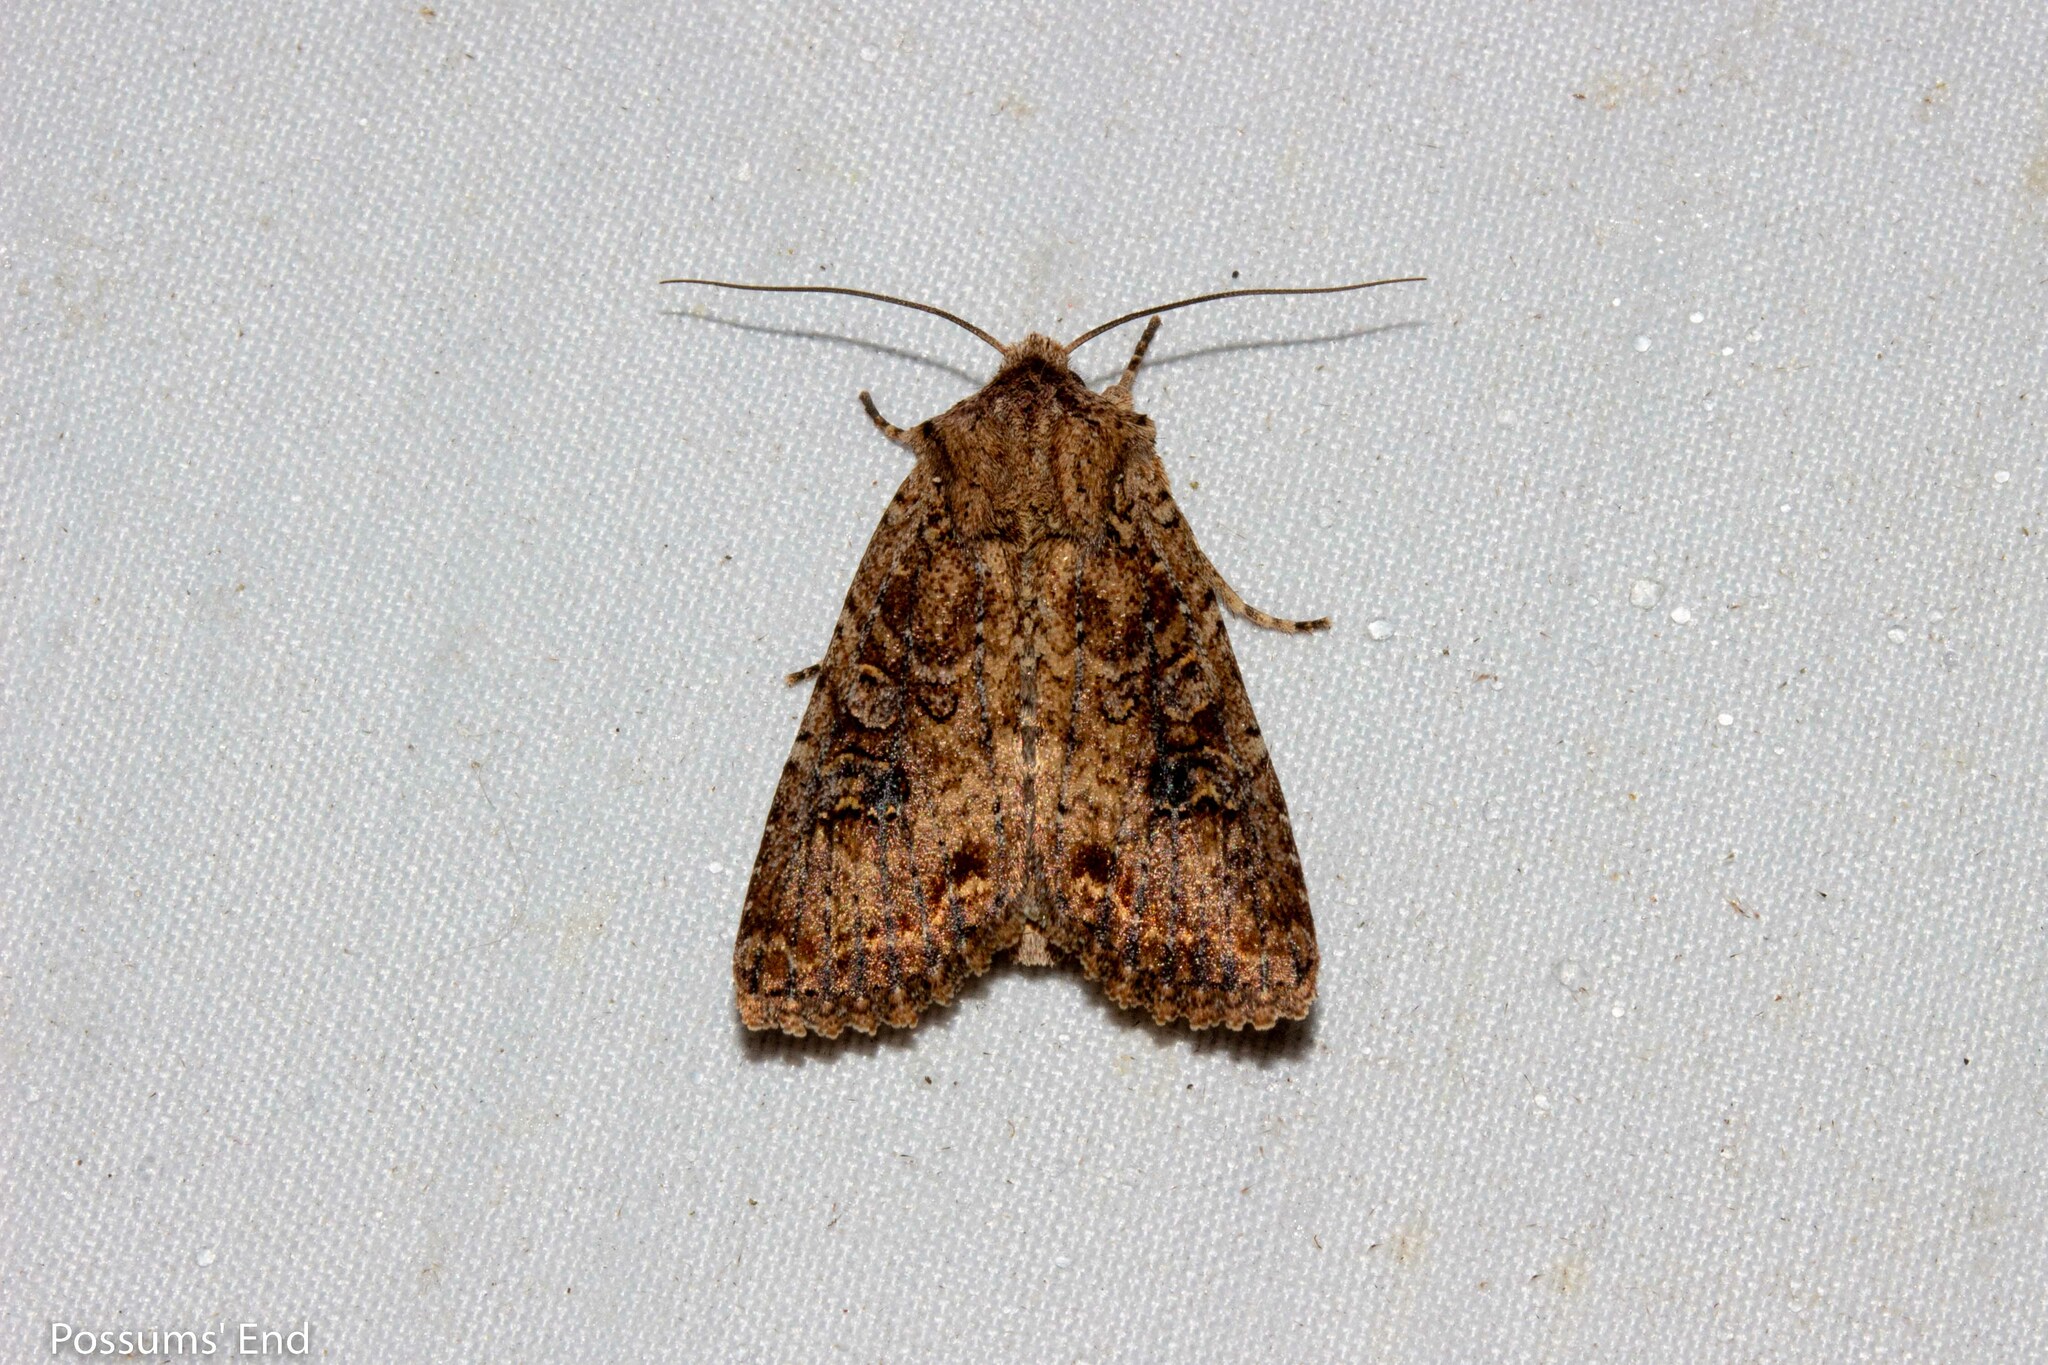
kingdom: Animalia
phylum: Arthropoda
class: Insecta
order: Lepidoptera
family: Noctuidae
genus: Ichneutica
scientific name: Ichneutica morosa
